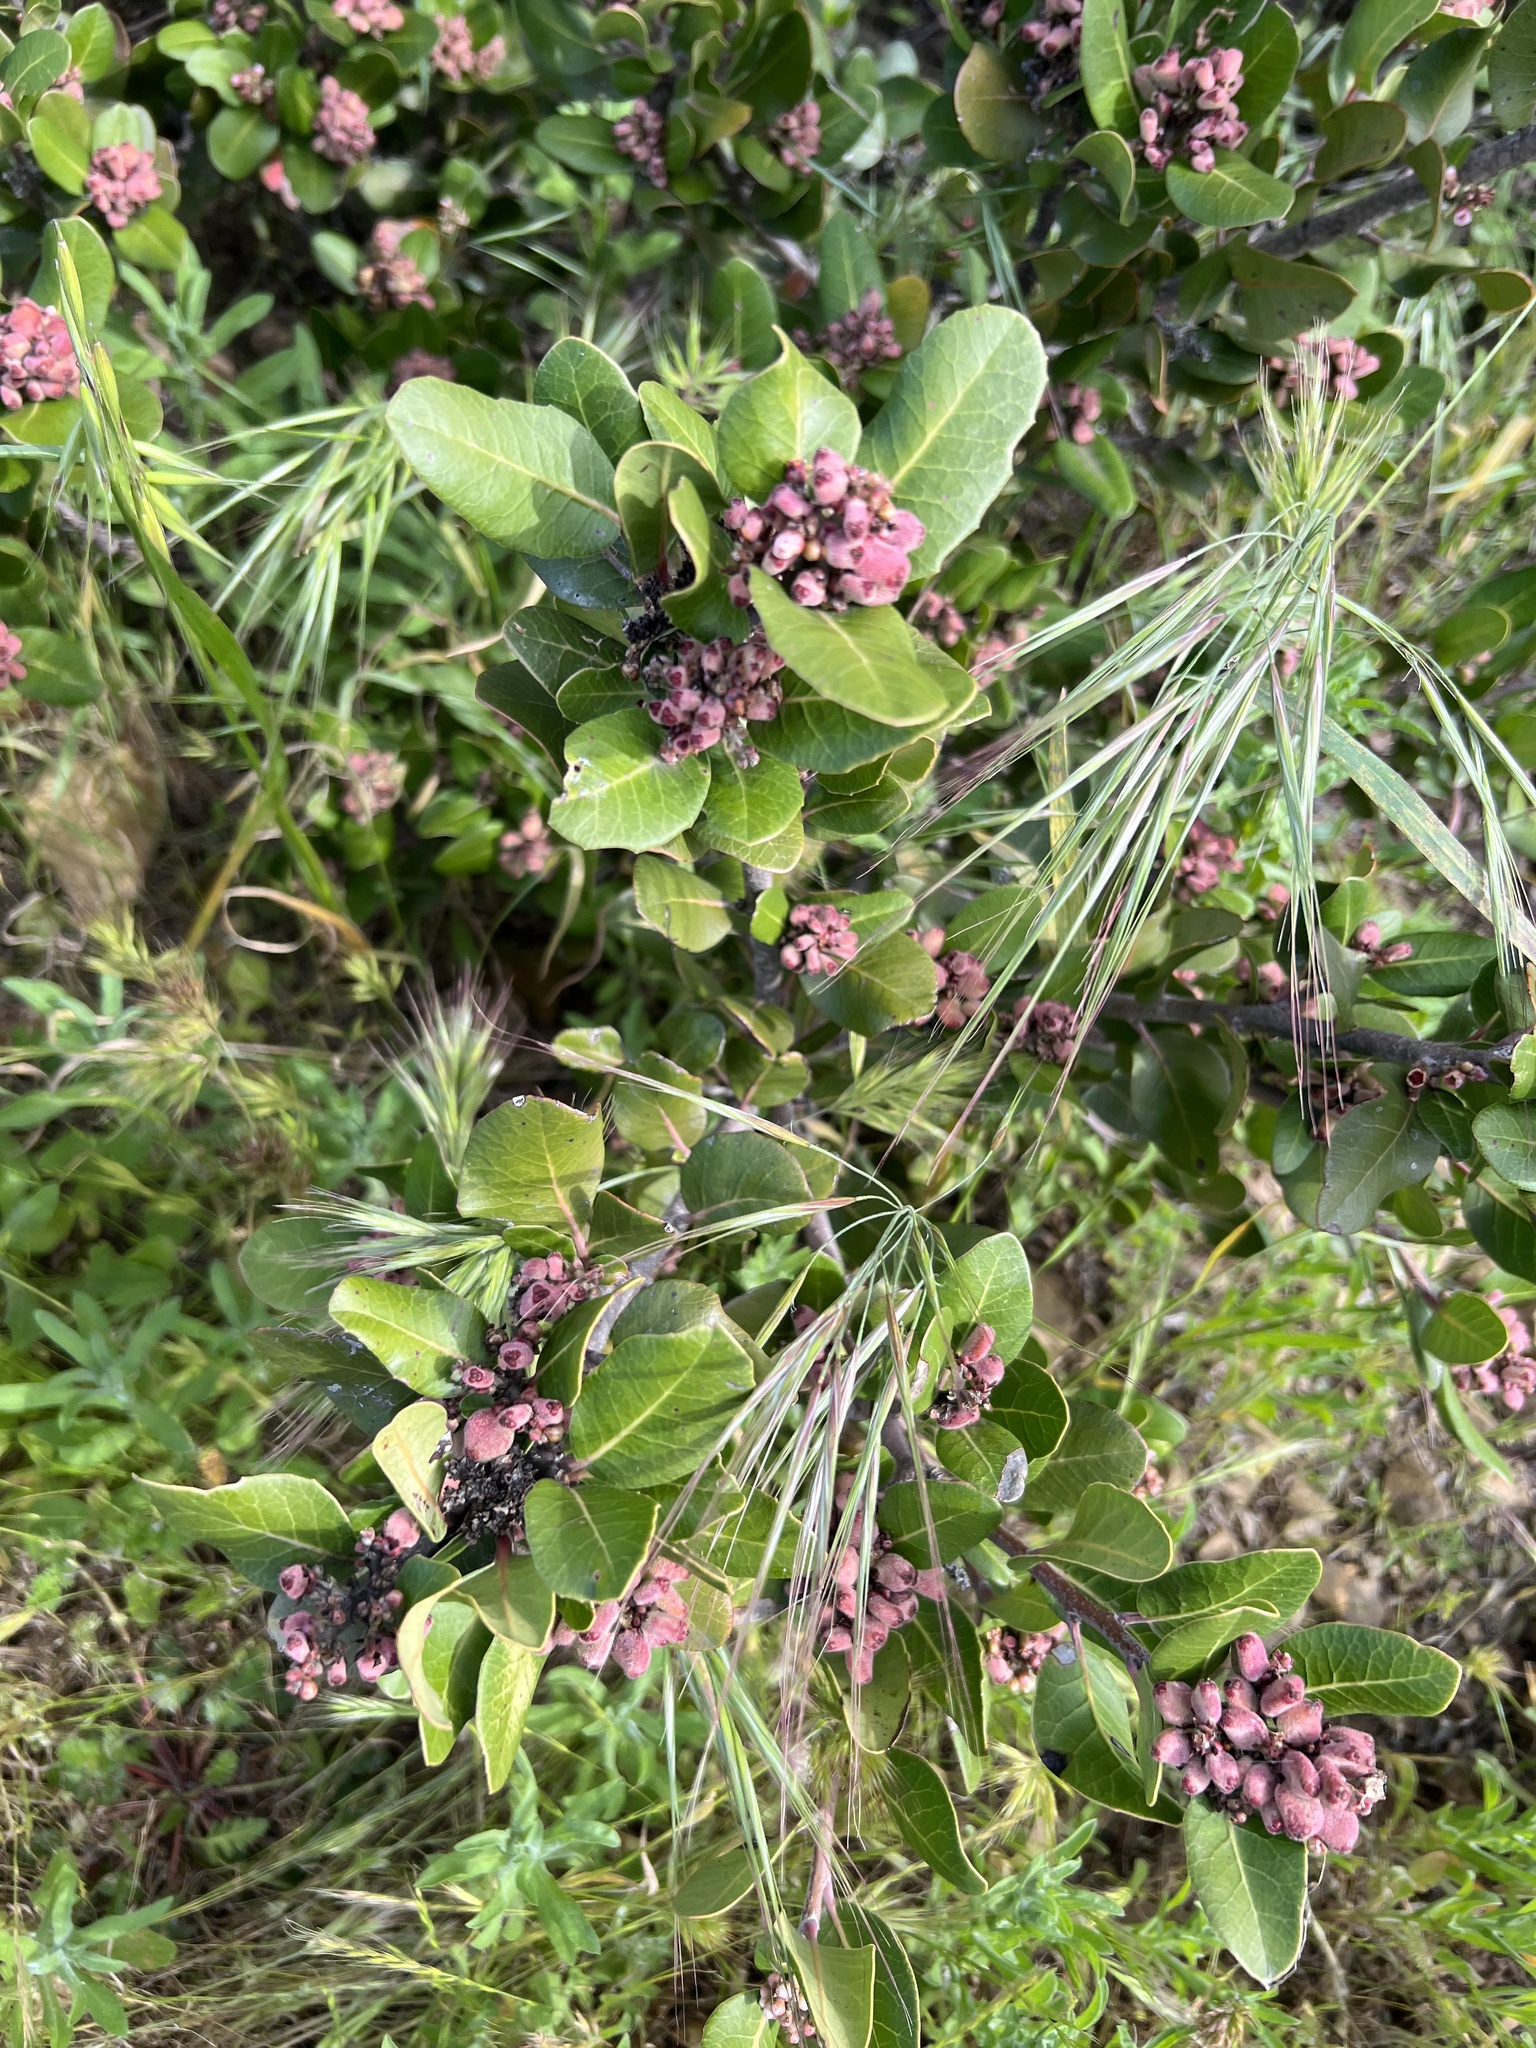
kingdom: Plantae
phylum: Tracheophyta
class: Magnoliopsida
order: Sapindales
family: Anacardiaceae
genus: Rhus
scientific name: Rhus integrifolia
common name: Lemonade sumac
